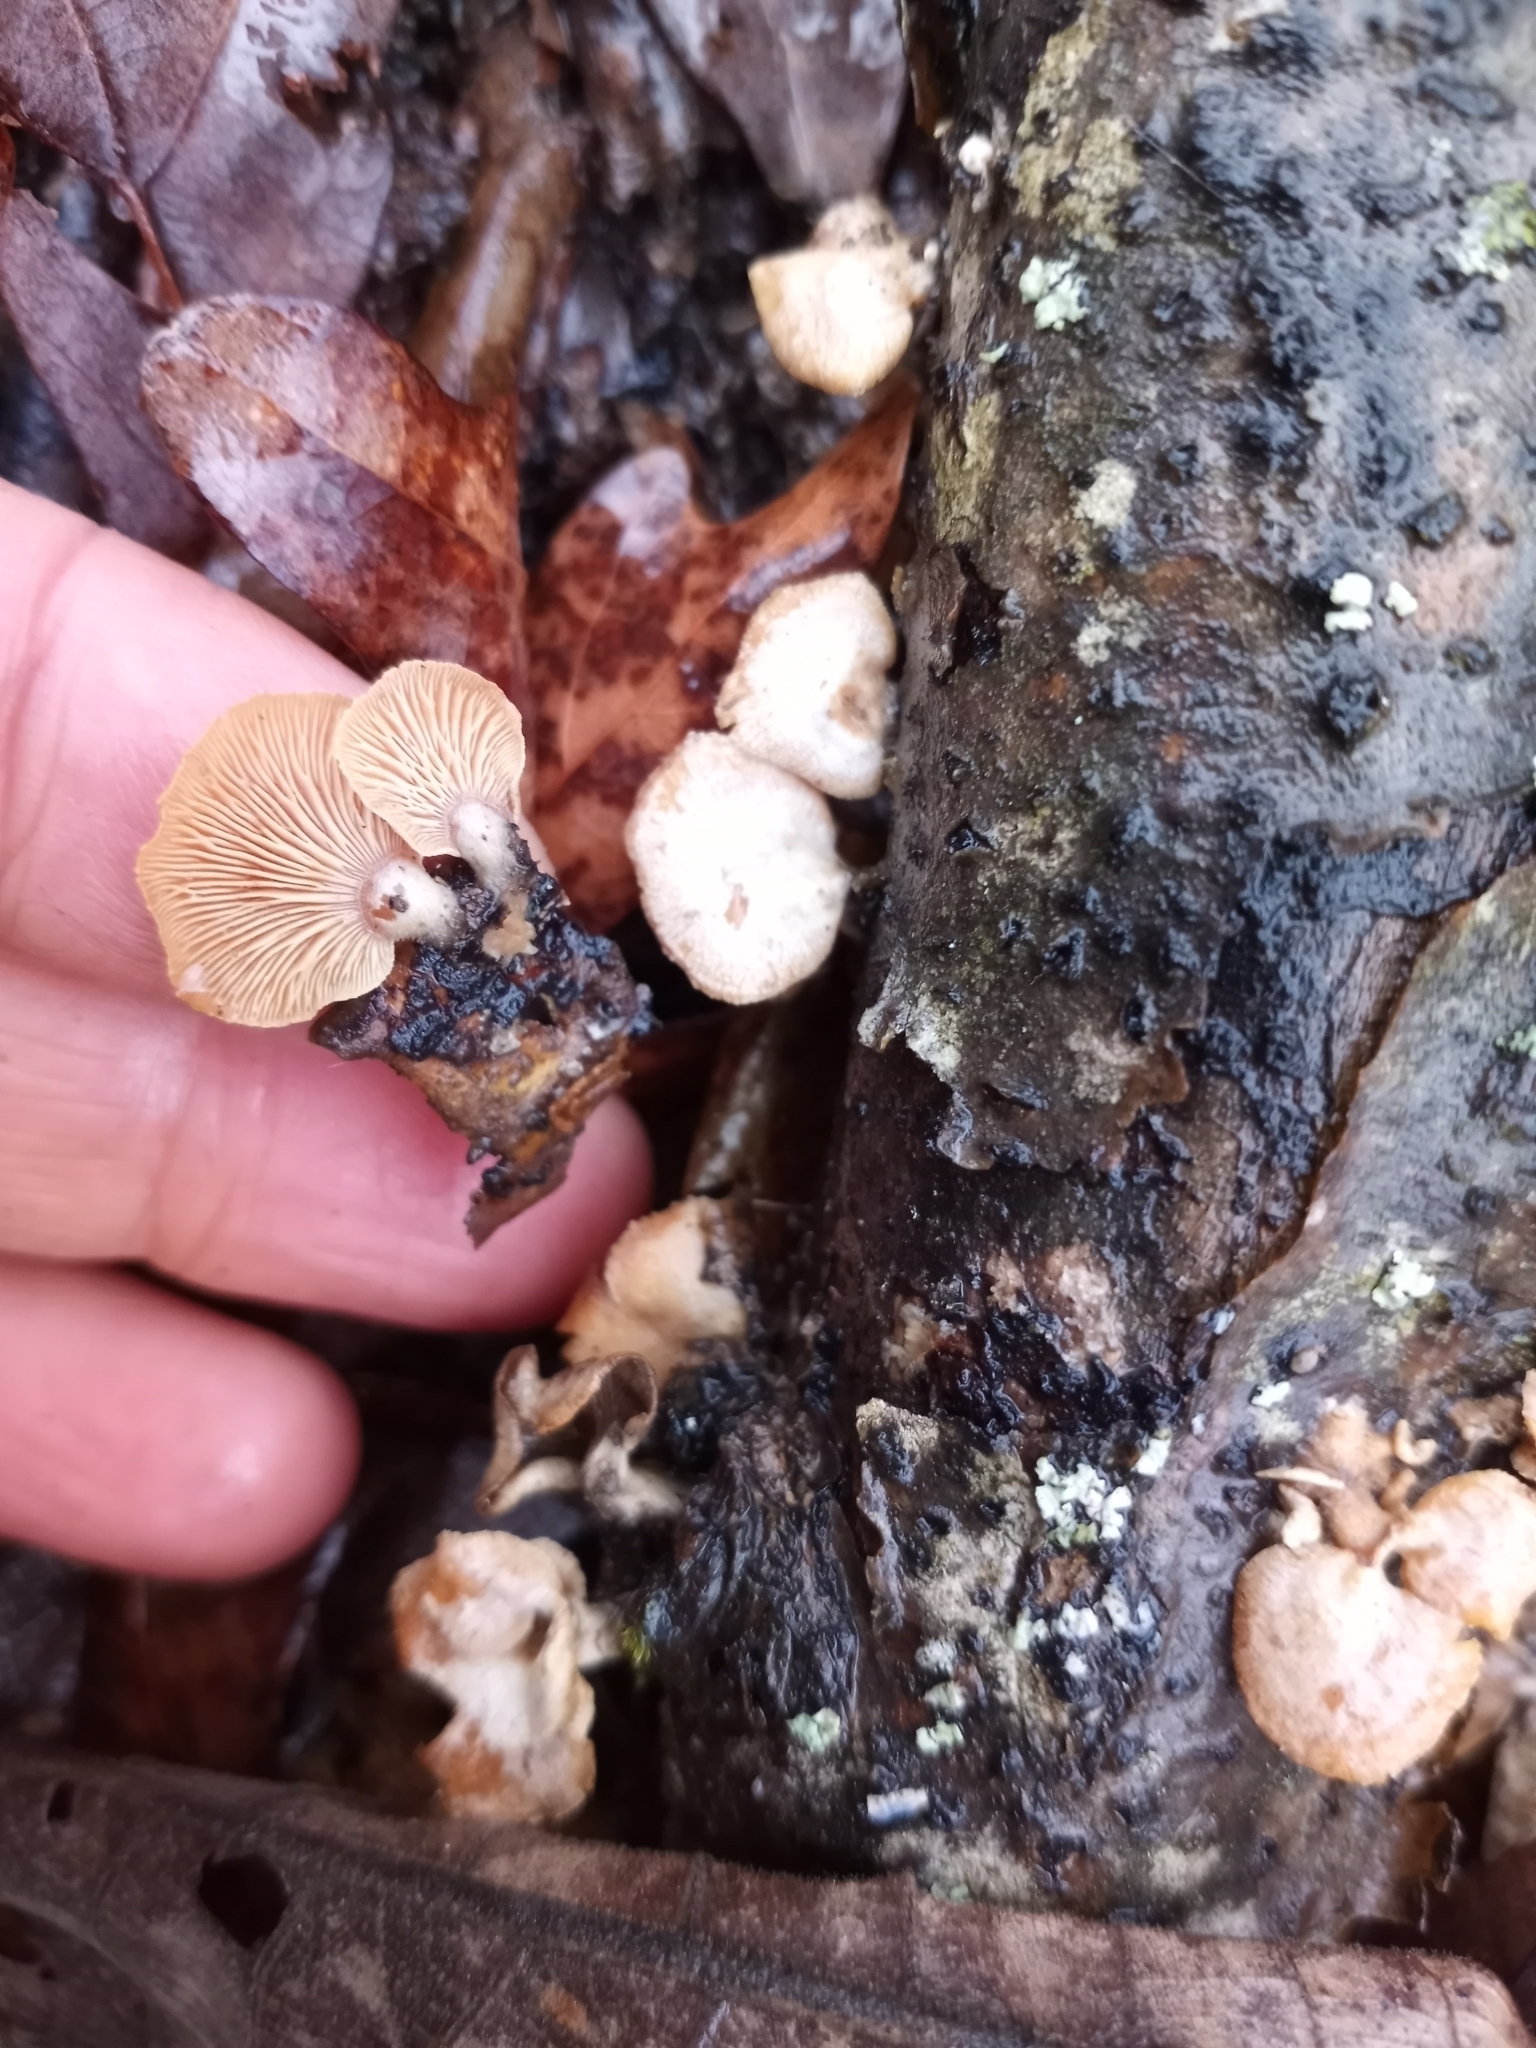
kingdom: Fungi
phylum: Basidiomycota
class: Agaricomycetes
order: Agaricales
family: Mycenaceae
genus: Panellus
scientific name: Panellus stipticus
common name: Bitter oysterling
